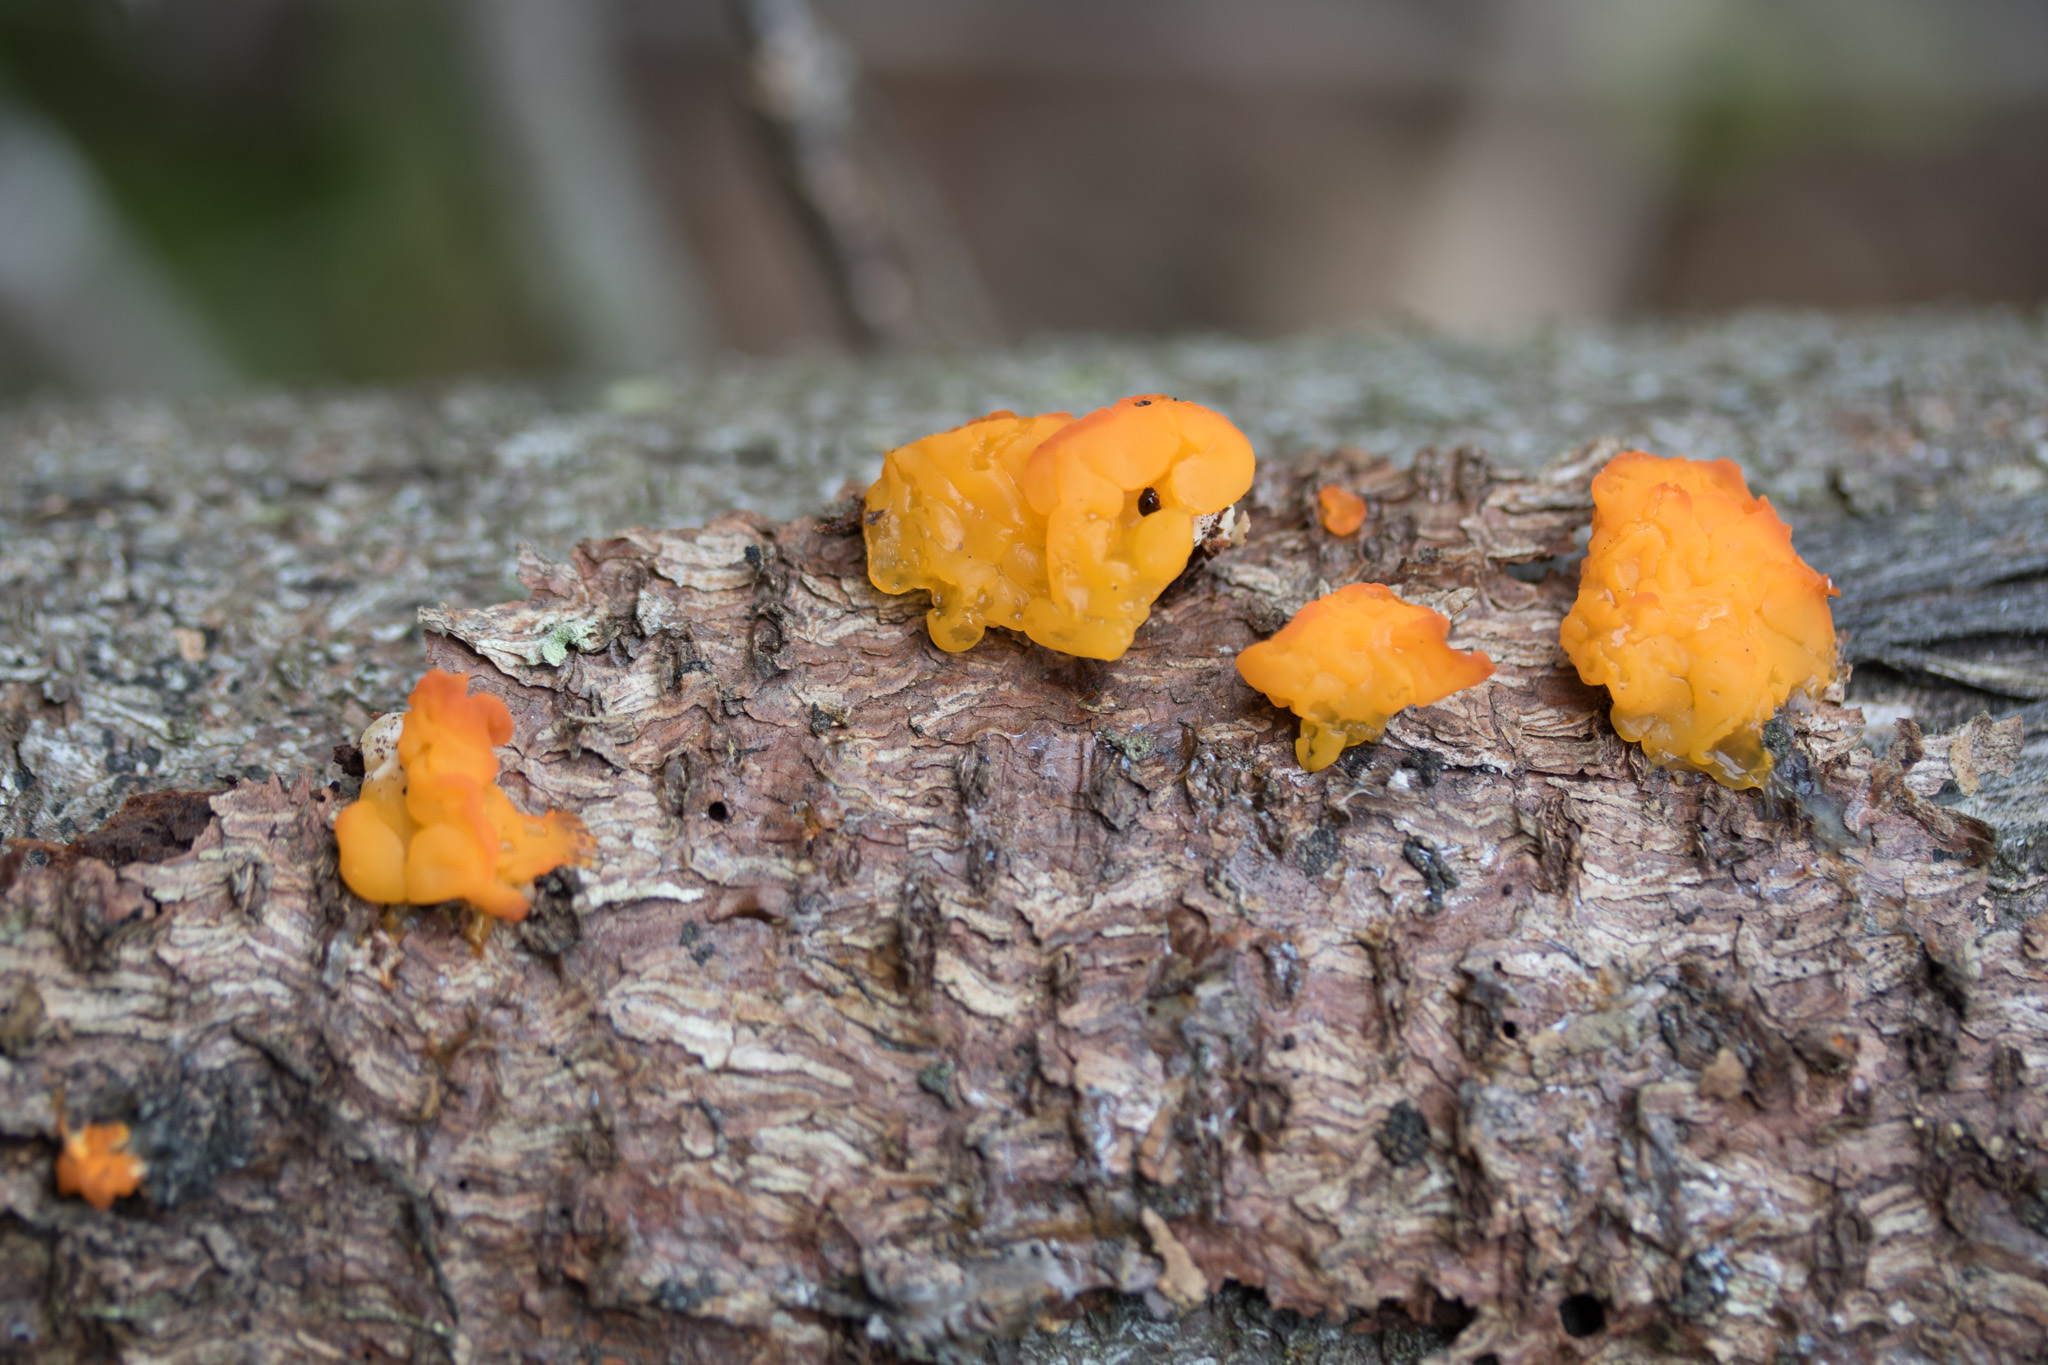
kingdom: Fungi
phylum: Basidiomycota
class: Dacrymycetes
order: Dacrymycetales
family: Dacrymycetaceae
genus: Dacrymyces
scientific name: Dacrymyces chrysospermus
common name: Orange jelly spot
